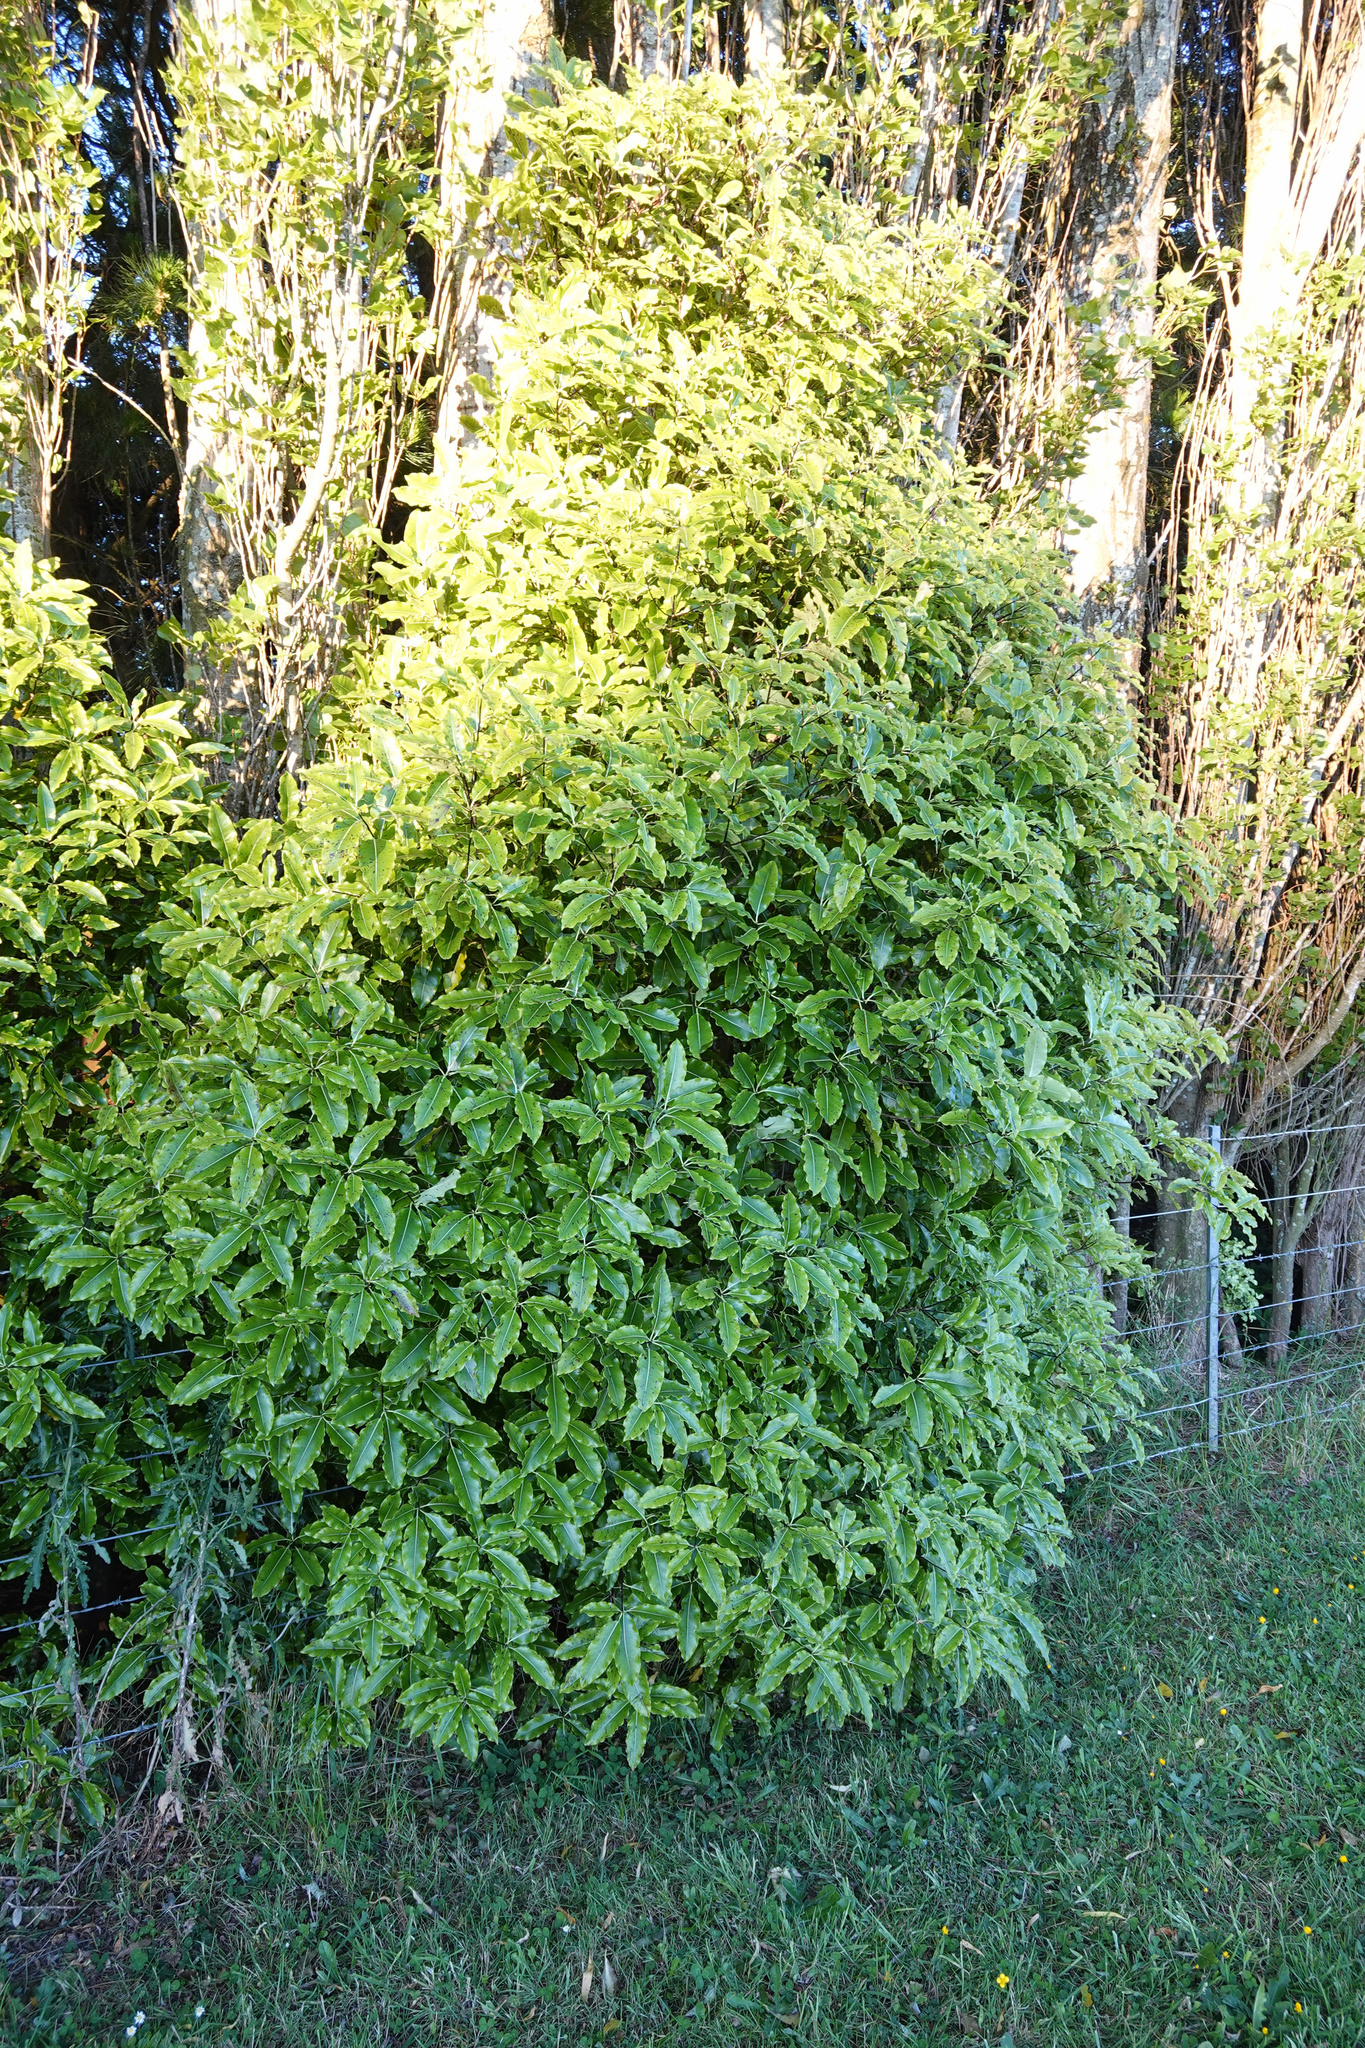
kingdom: Plantae
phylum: Tracheophyta
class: Magnoliopsida
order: Apiales
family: Pittosporaceae
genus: Pittosporum
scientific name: Pittosporum eugenioides
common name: Lemonwood
